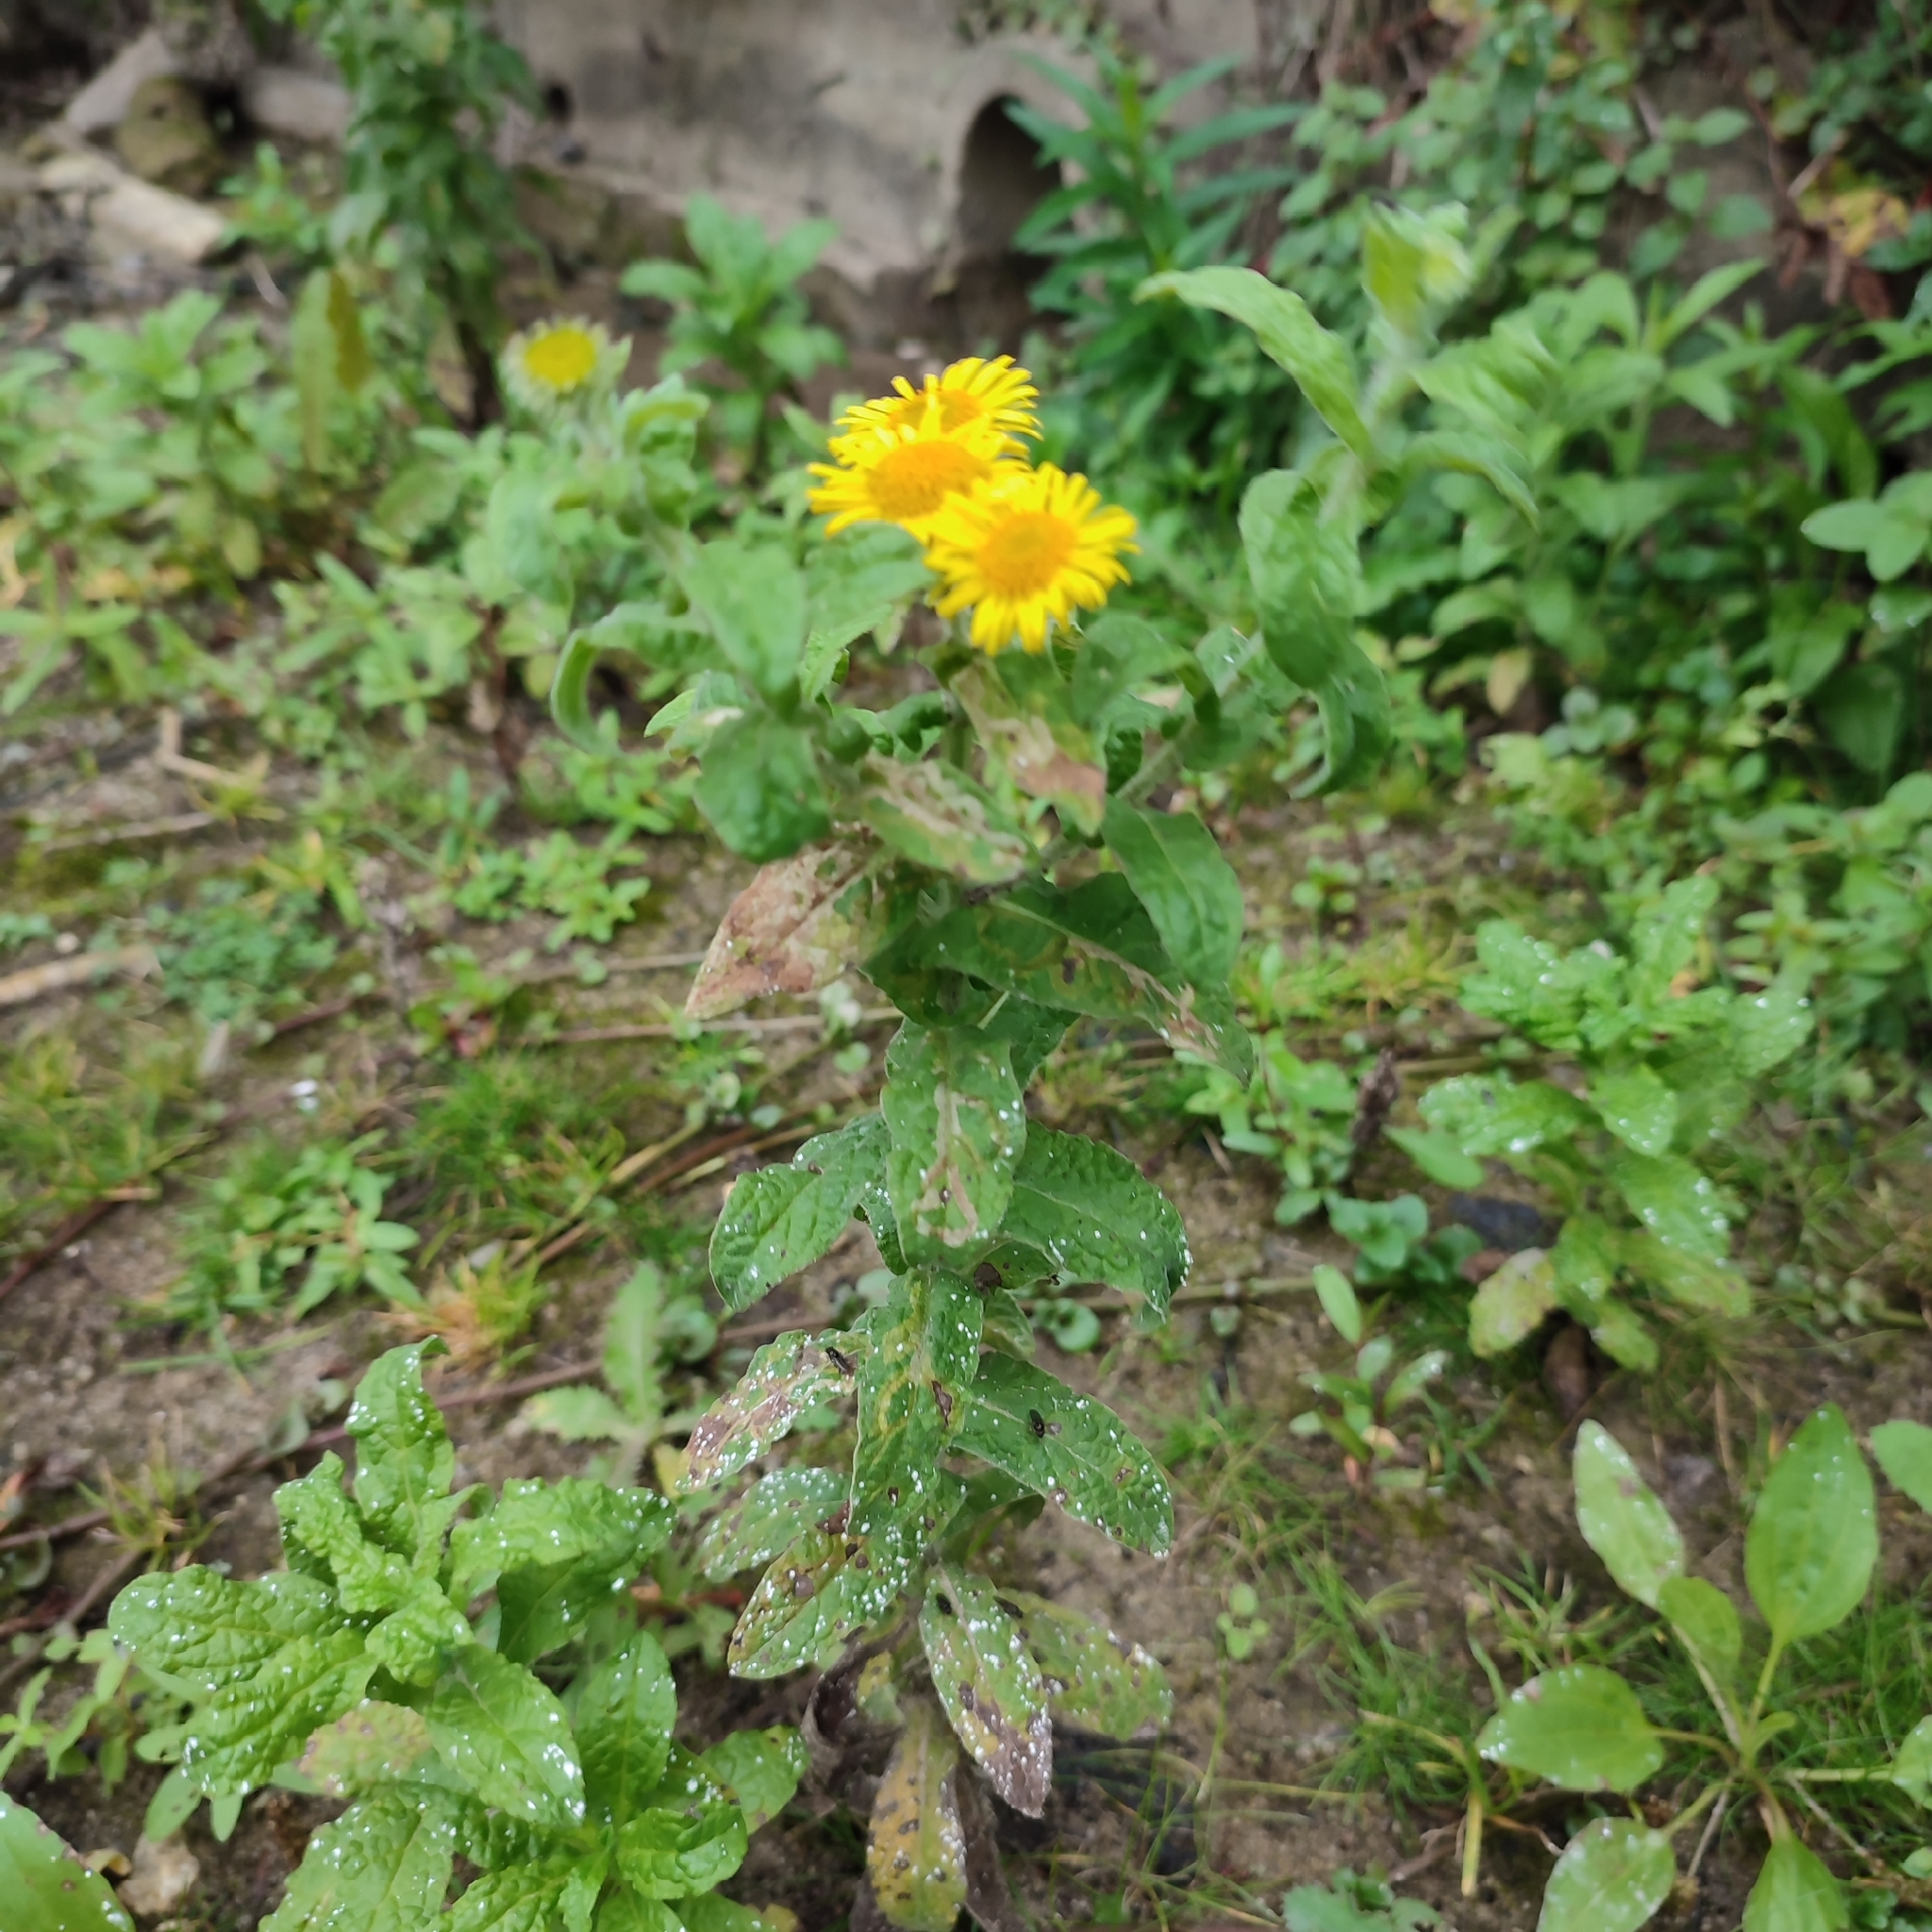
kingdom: Plantae
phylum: Tracheophyta
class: Magnoliopsida
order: Asterales
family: Asteraceae
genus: Pulicaria
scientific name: Pulicaria dysenterica
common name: Common fleabane
